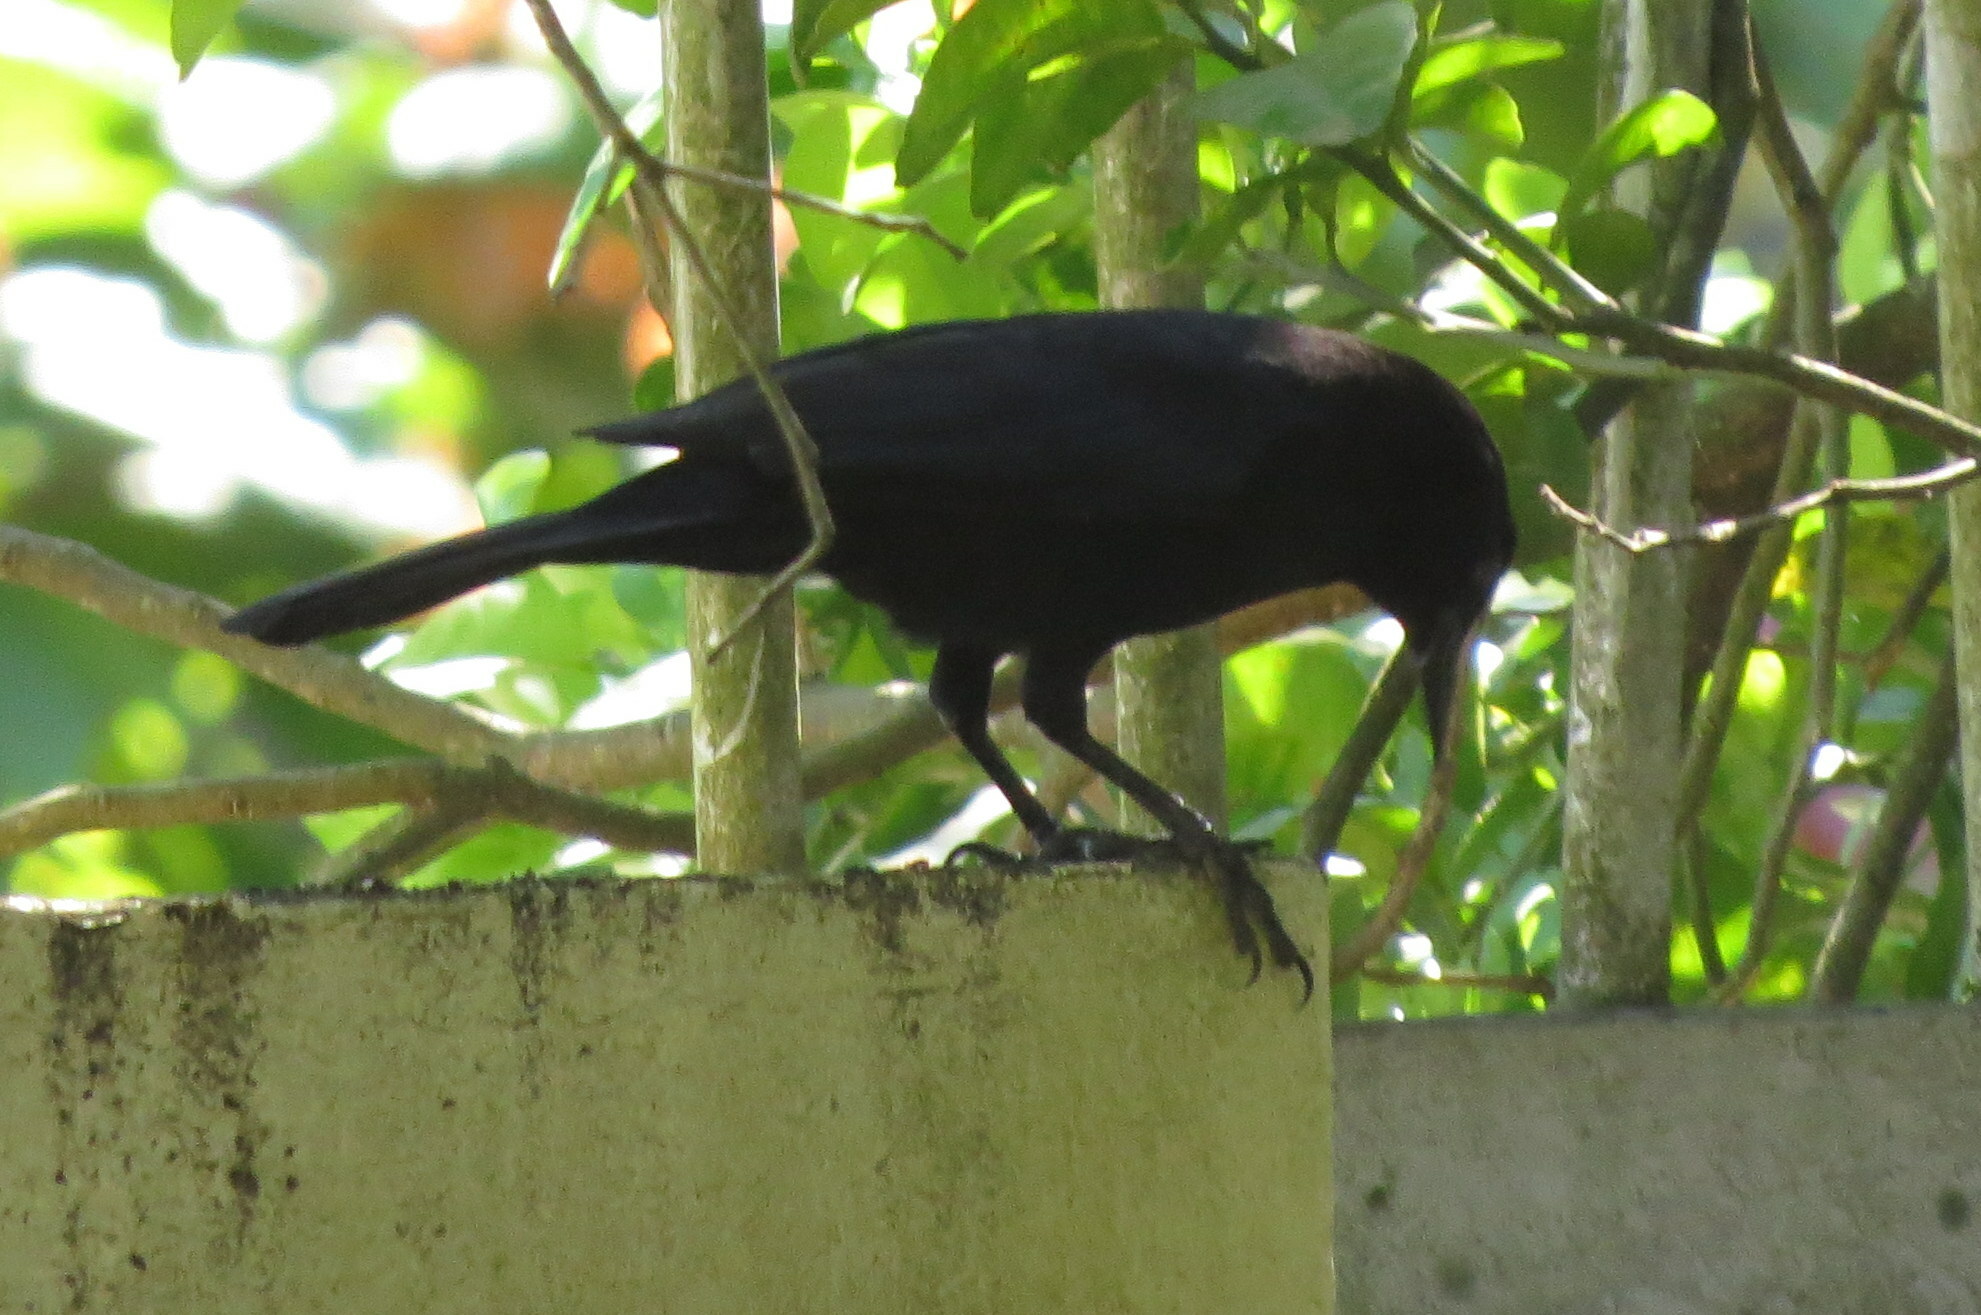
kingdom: Animalia
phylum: Chordata
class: Aves
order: Passeriformes
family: Icteridae
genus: Quiscalus
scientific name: Quiscalus niger
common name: Greater antillean grackle
